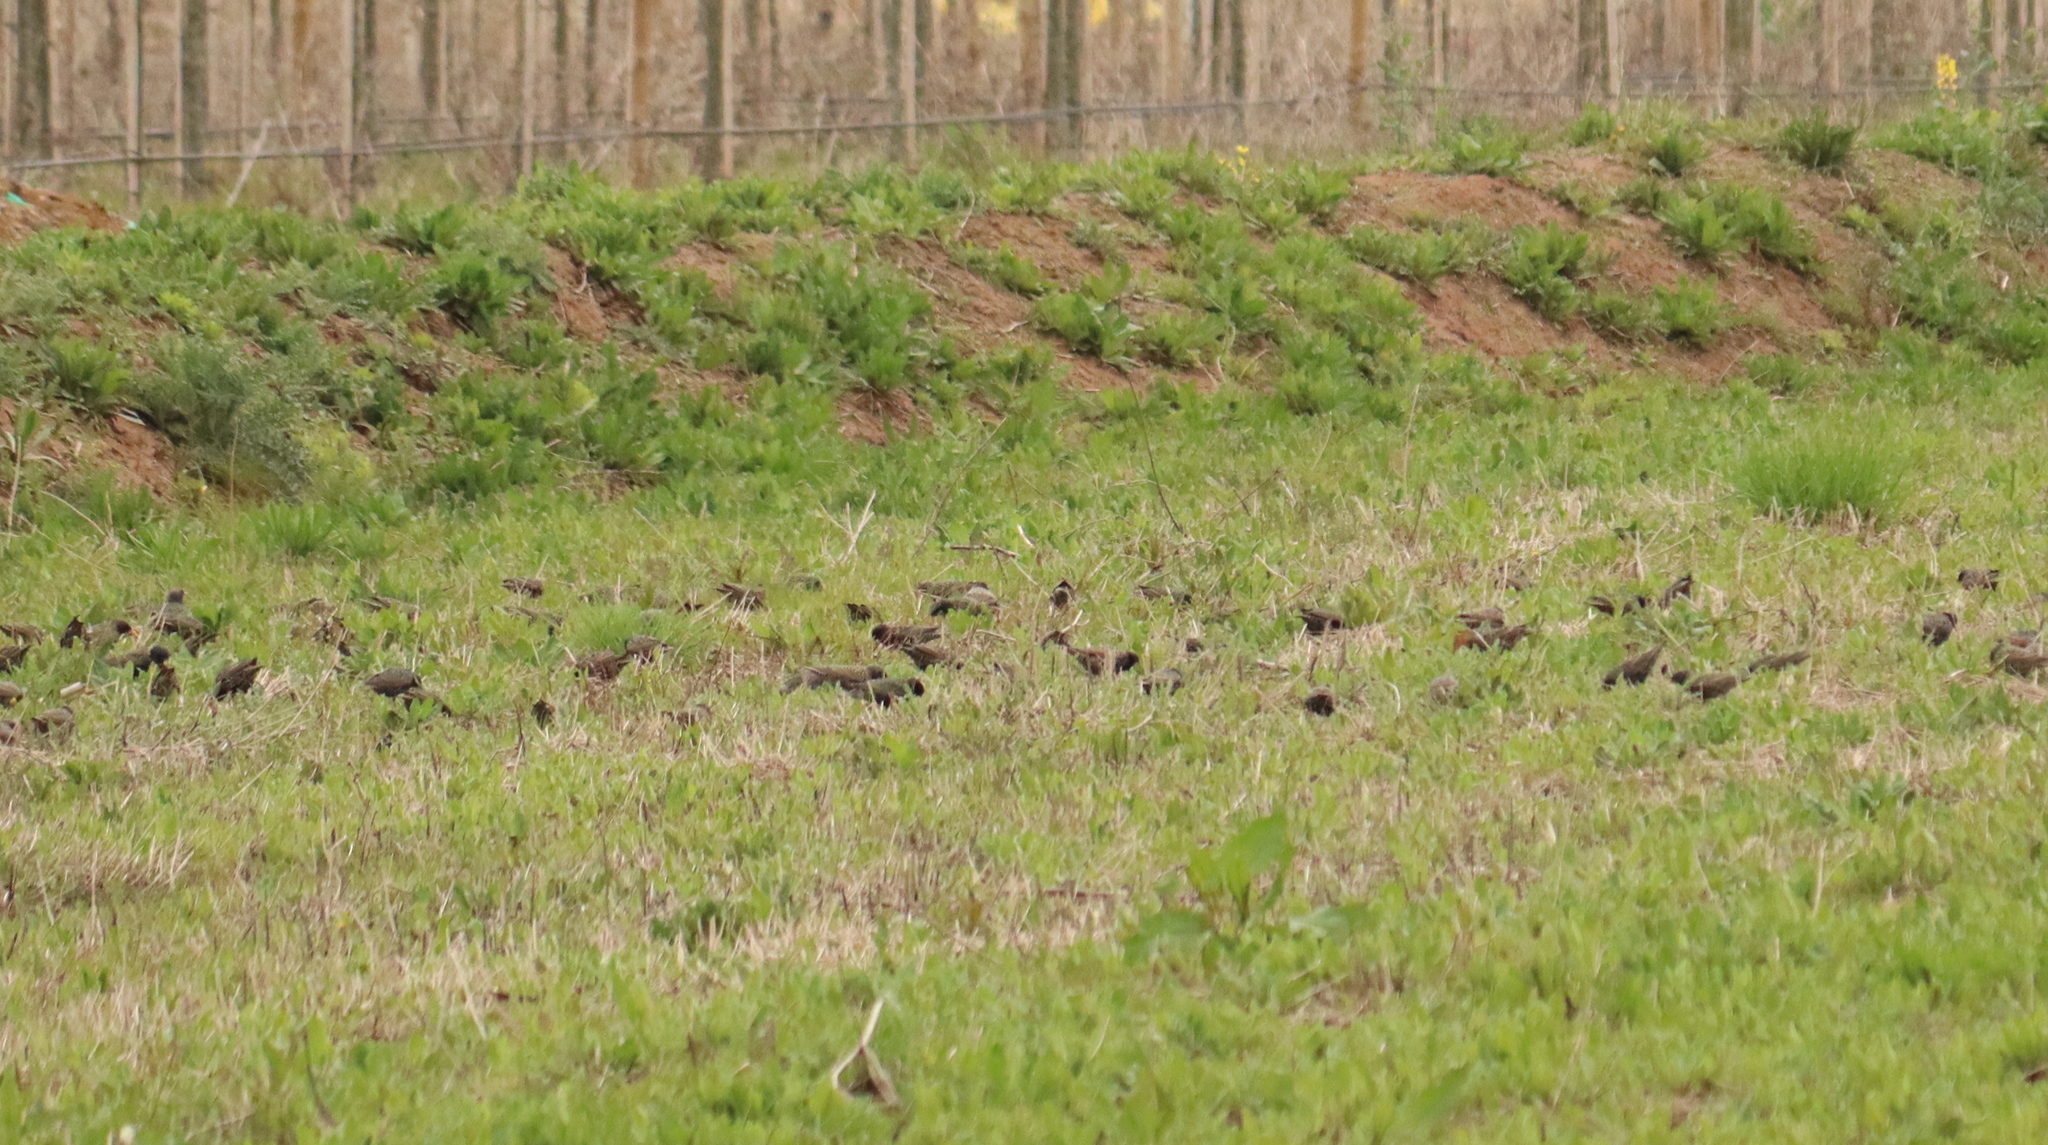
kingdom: Animalia
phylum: Chordata
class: Aves
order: Passeriformes
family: Sturnidae
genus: Sturnus
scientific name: Sturnus vulgaris
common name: Common starling
